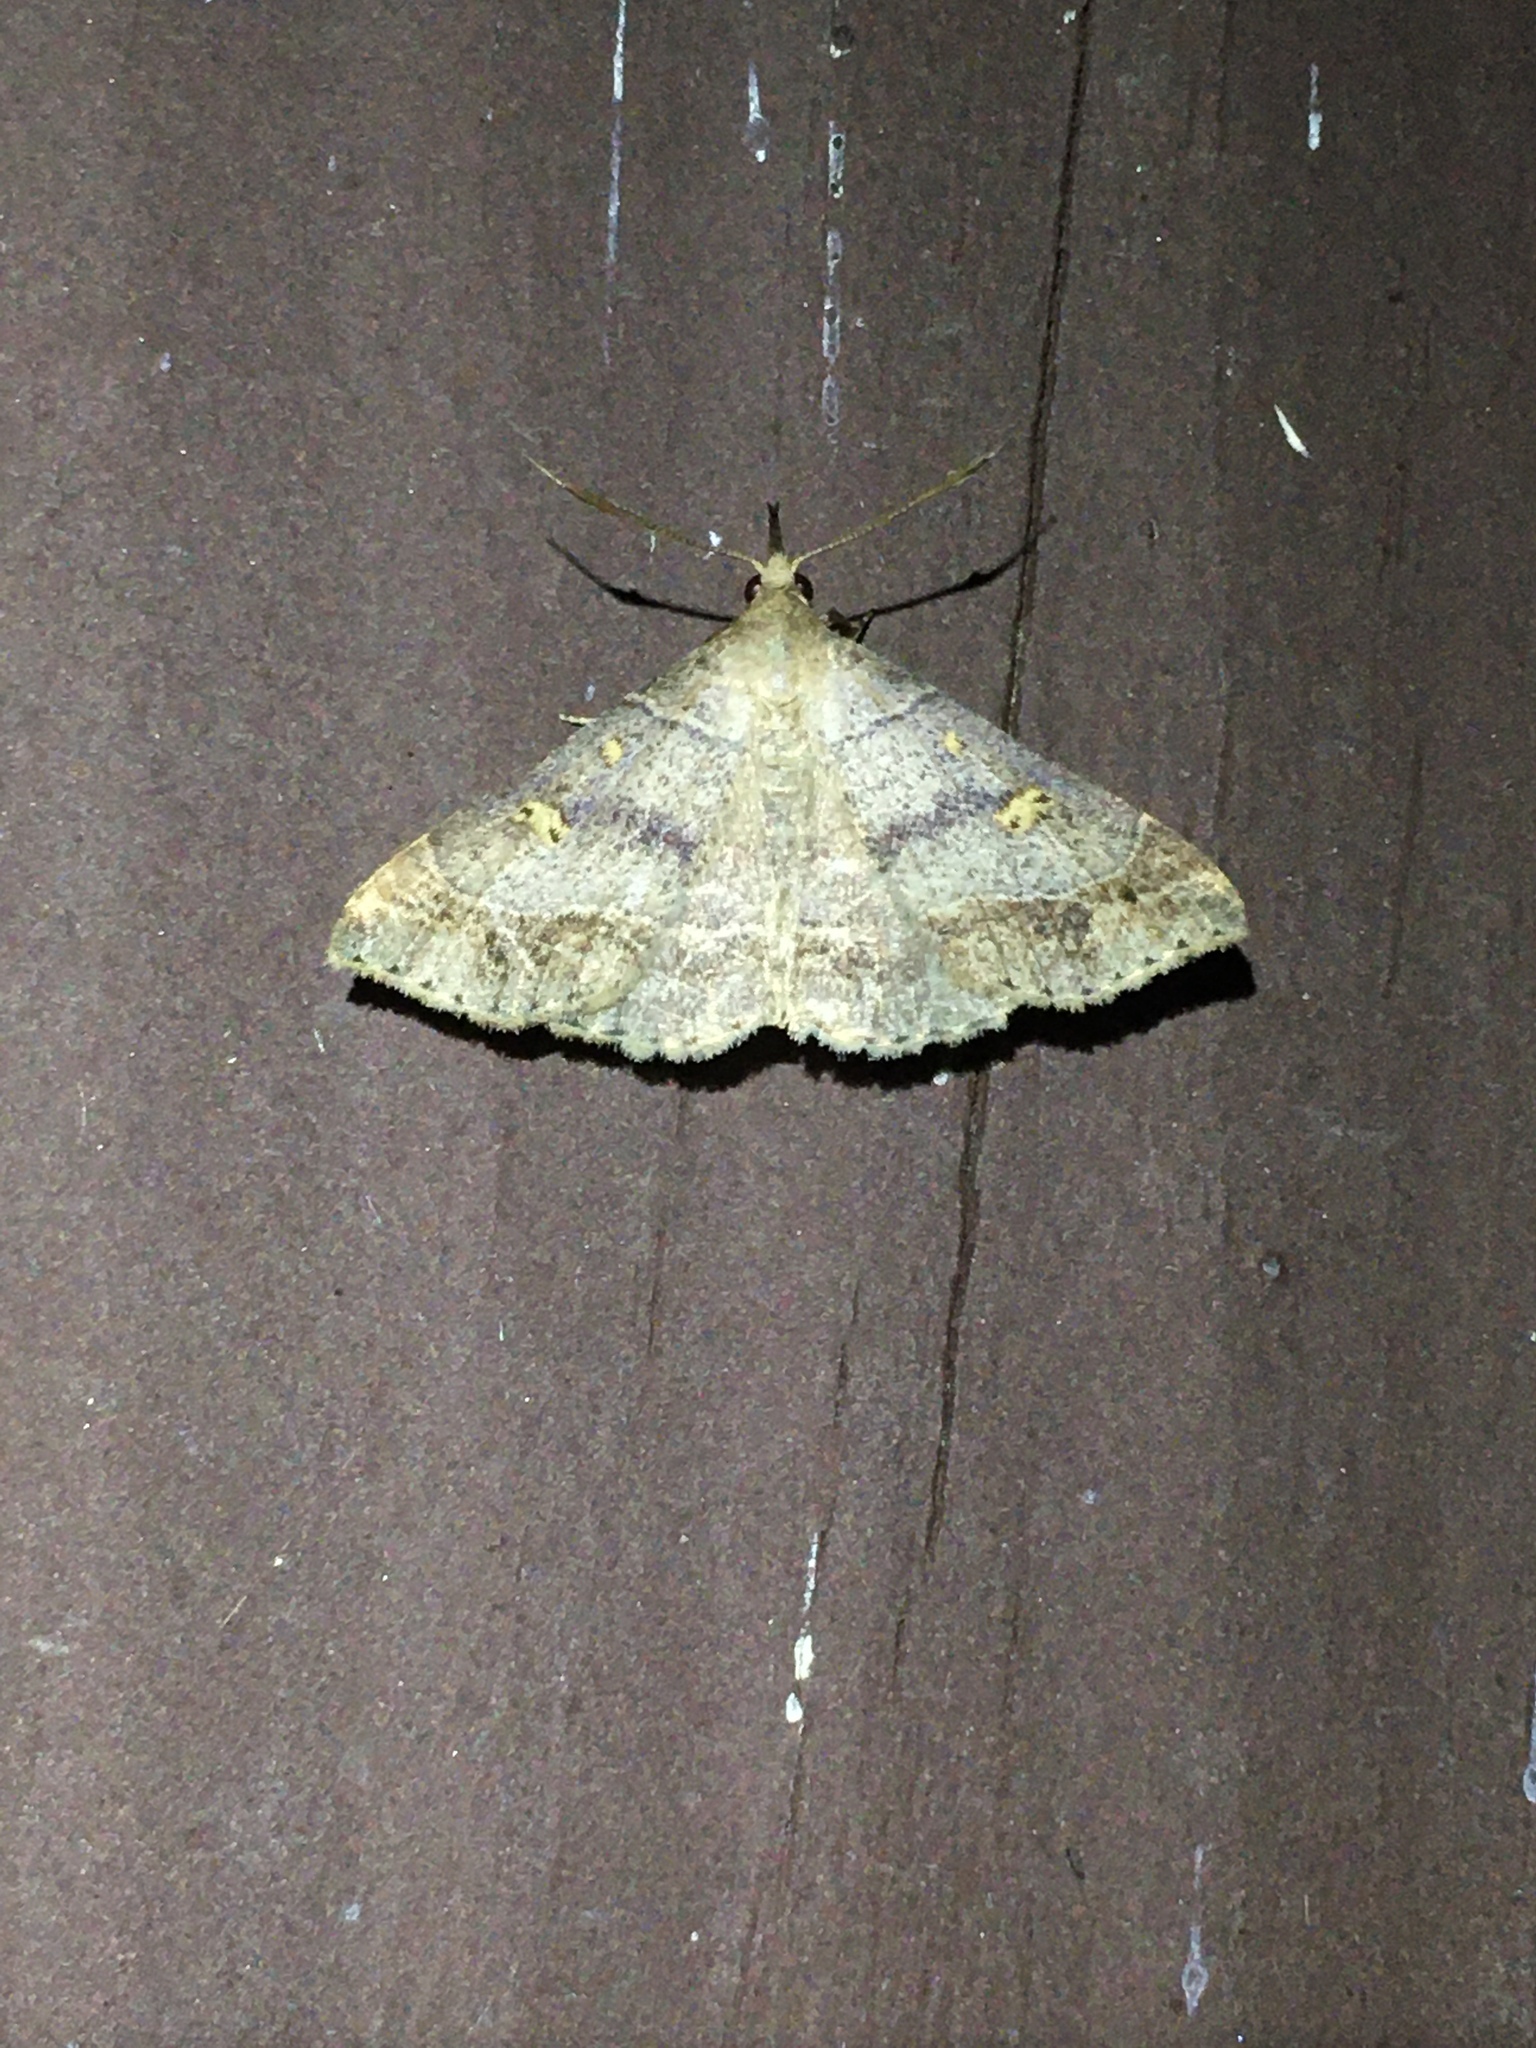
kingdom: Animalia
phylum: Arthropoda
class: Insecta
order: Lepidoptera
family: Erebidae
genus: Renia
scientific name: Renia flavipunctalis
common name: Yellow-spotted renia moth
